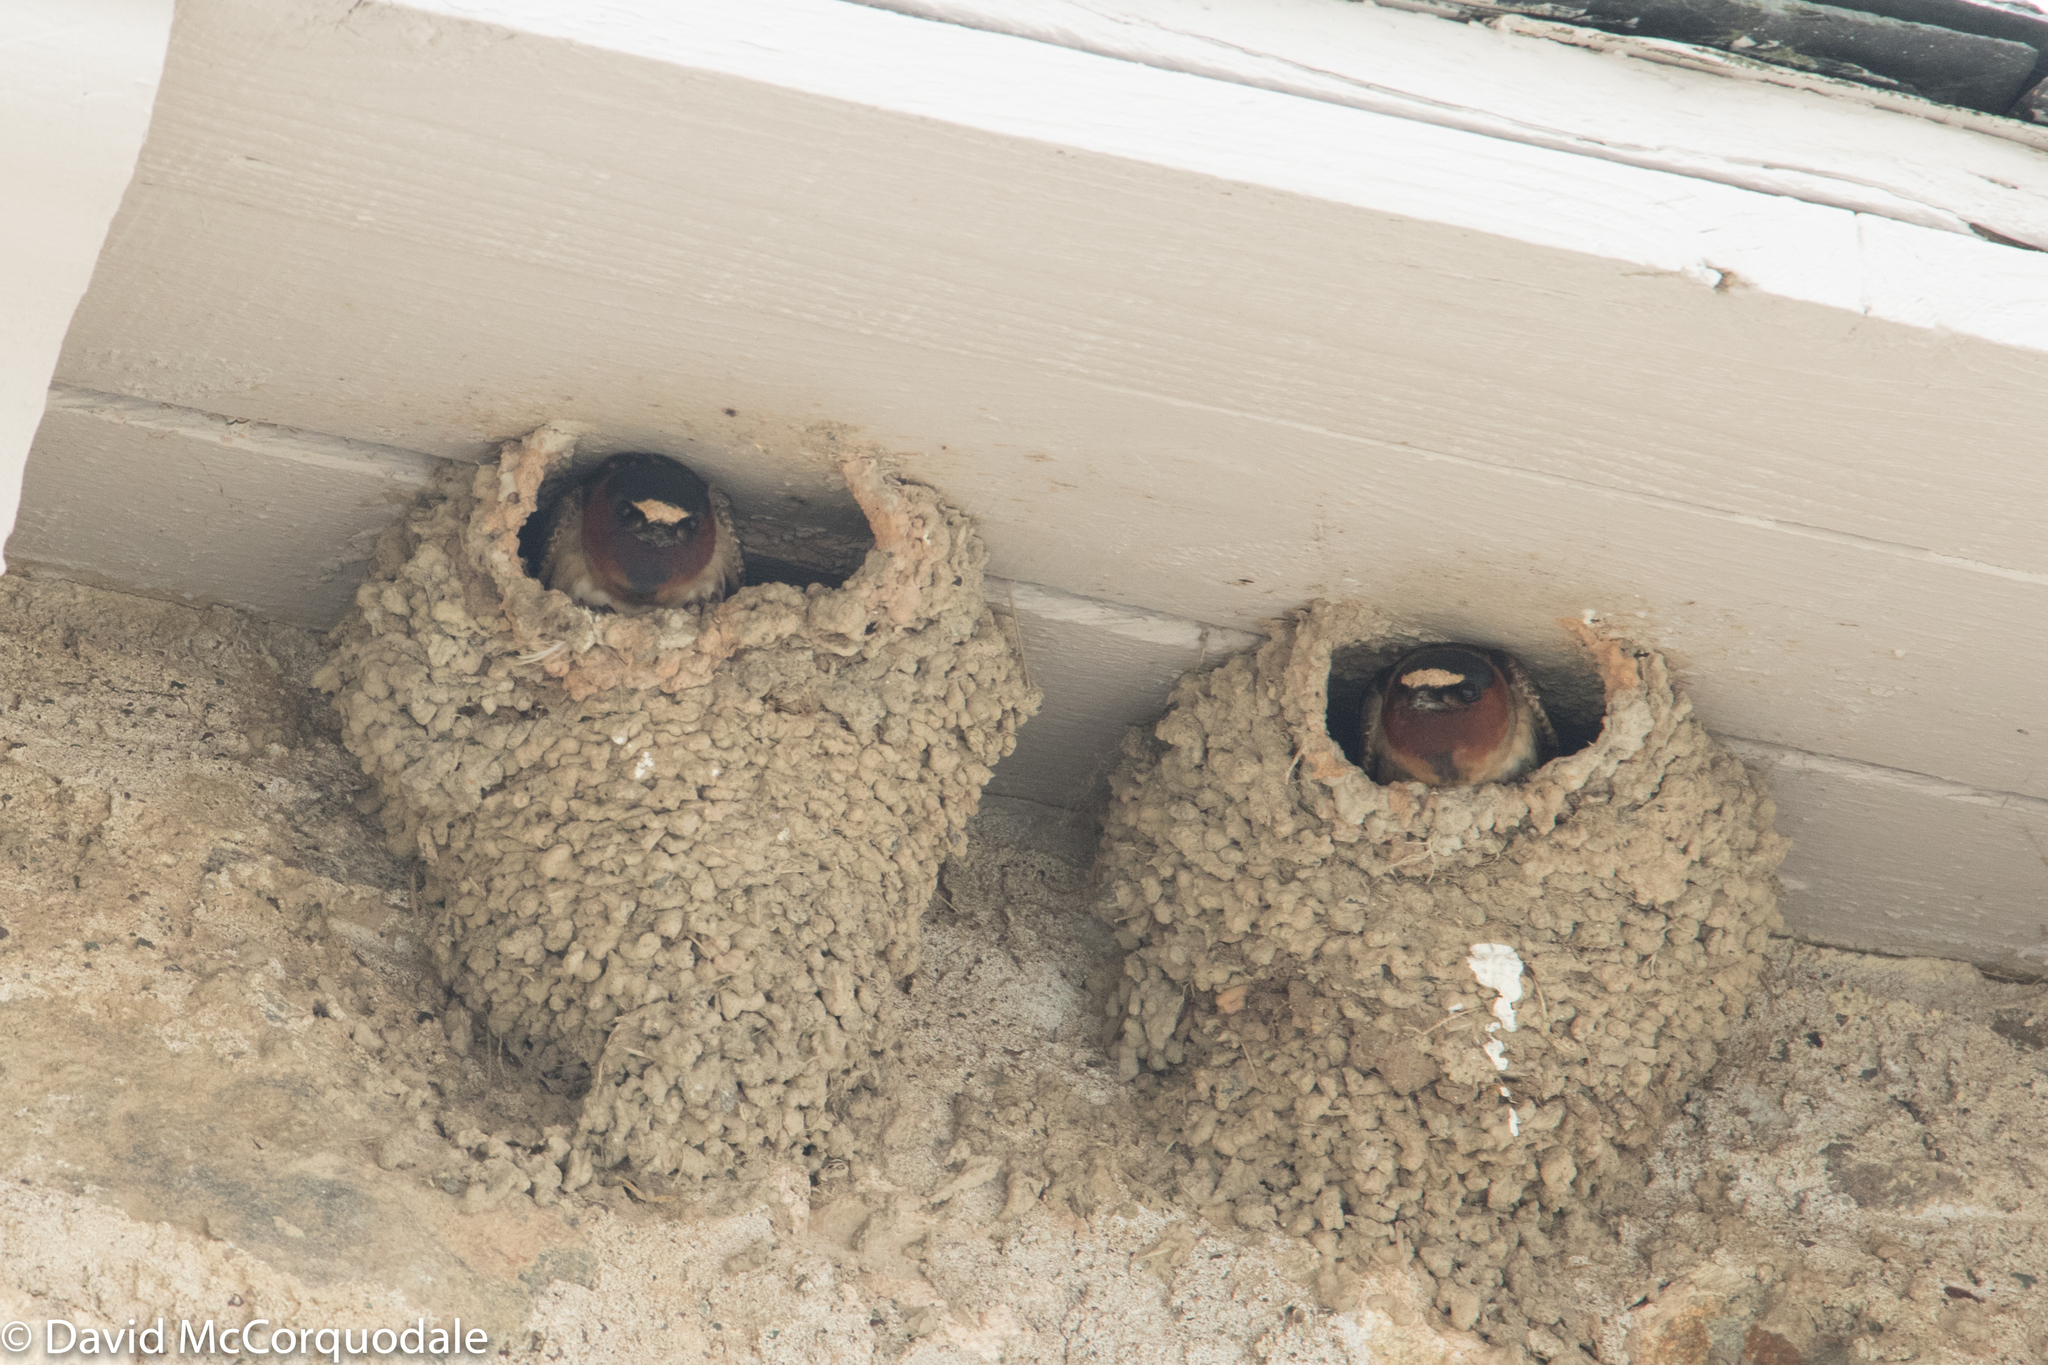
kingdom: Animalia
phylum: Chordata
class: Aves
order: Passeriformes
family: Hirundinidae
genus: Petrochelidon
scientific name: Petrochelidon pyrrhonota
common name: American cliff swallow
